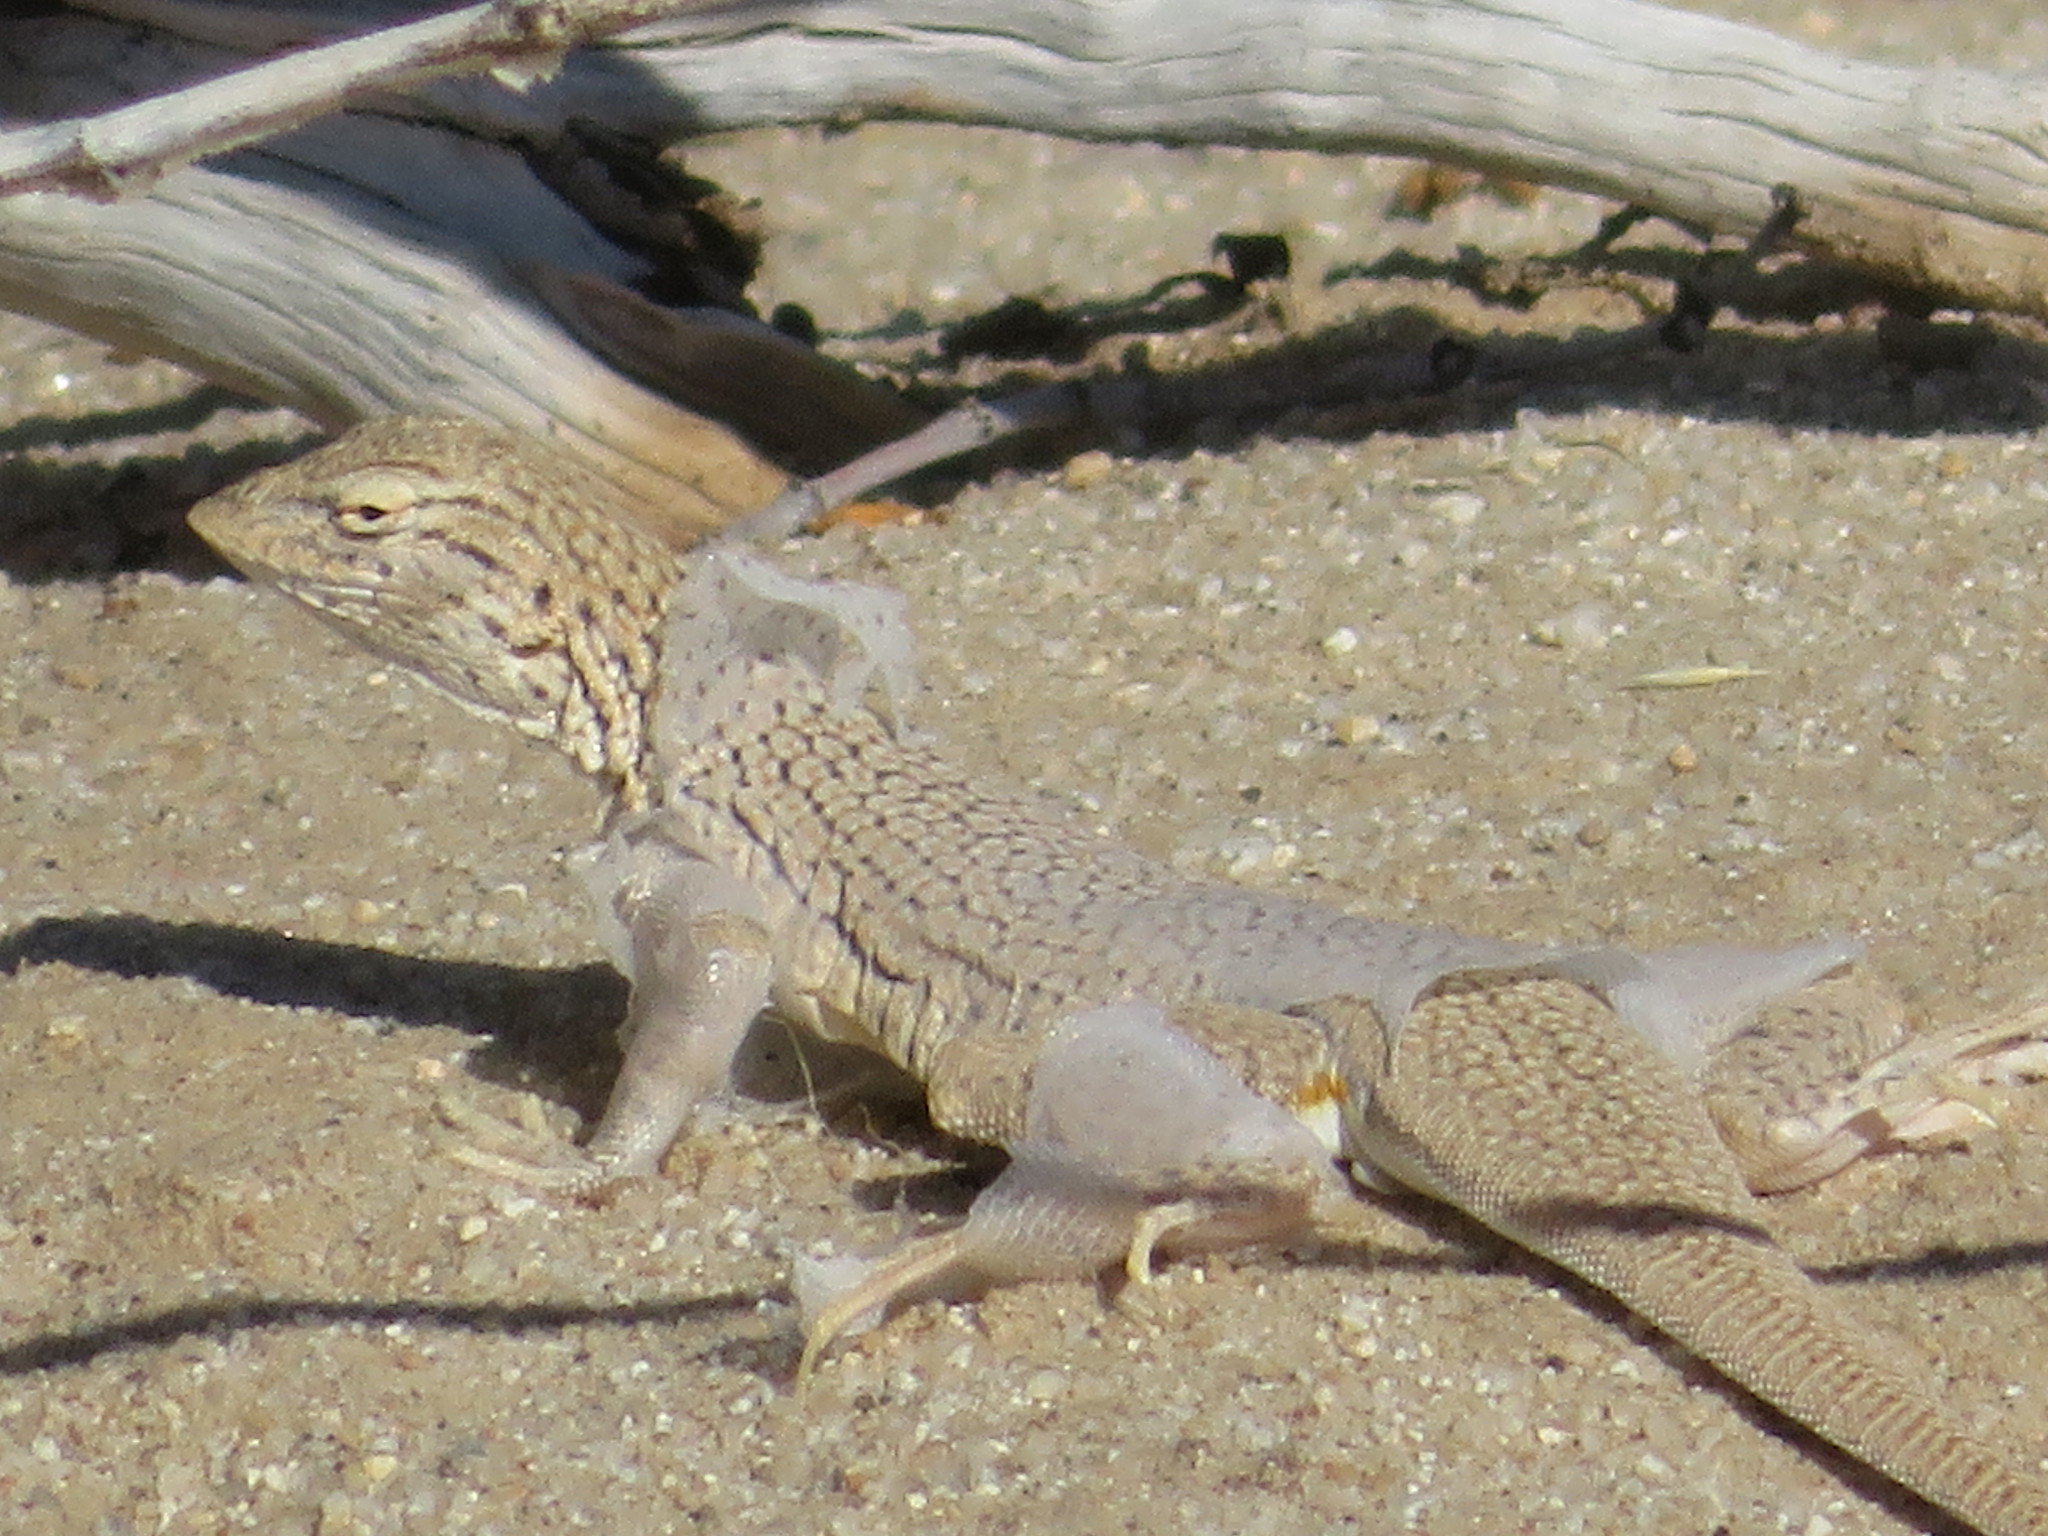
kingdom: Animalia
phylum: Chordata
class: Squamata
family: Phrynosomatidae
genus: Uma
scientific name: Uma notata
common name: Colorado desert fringe-toed lizard
